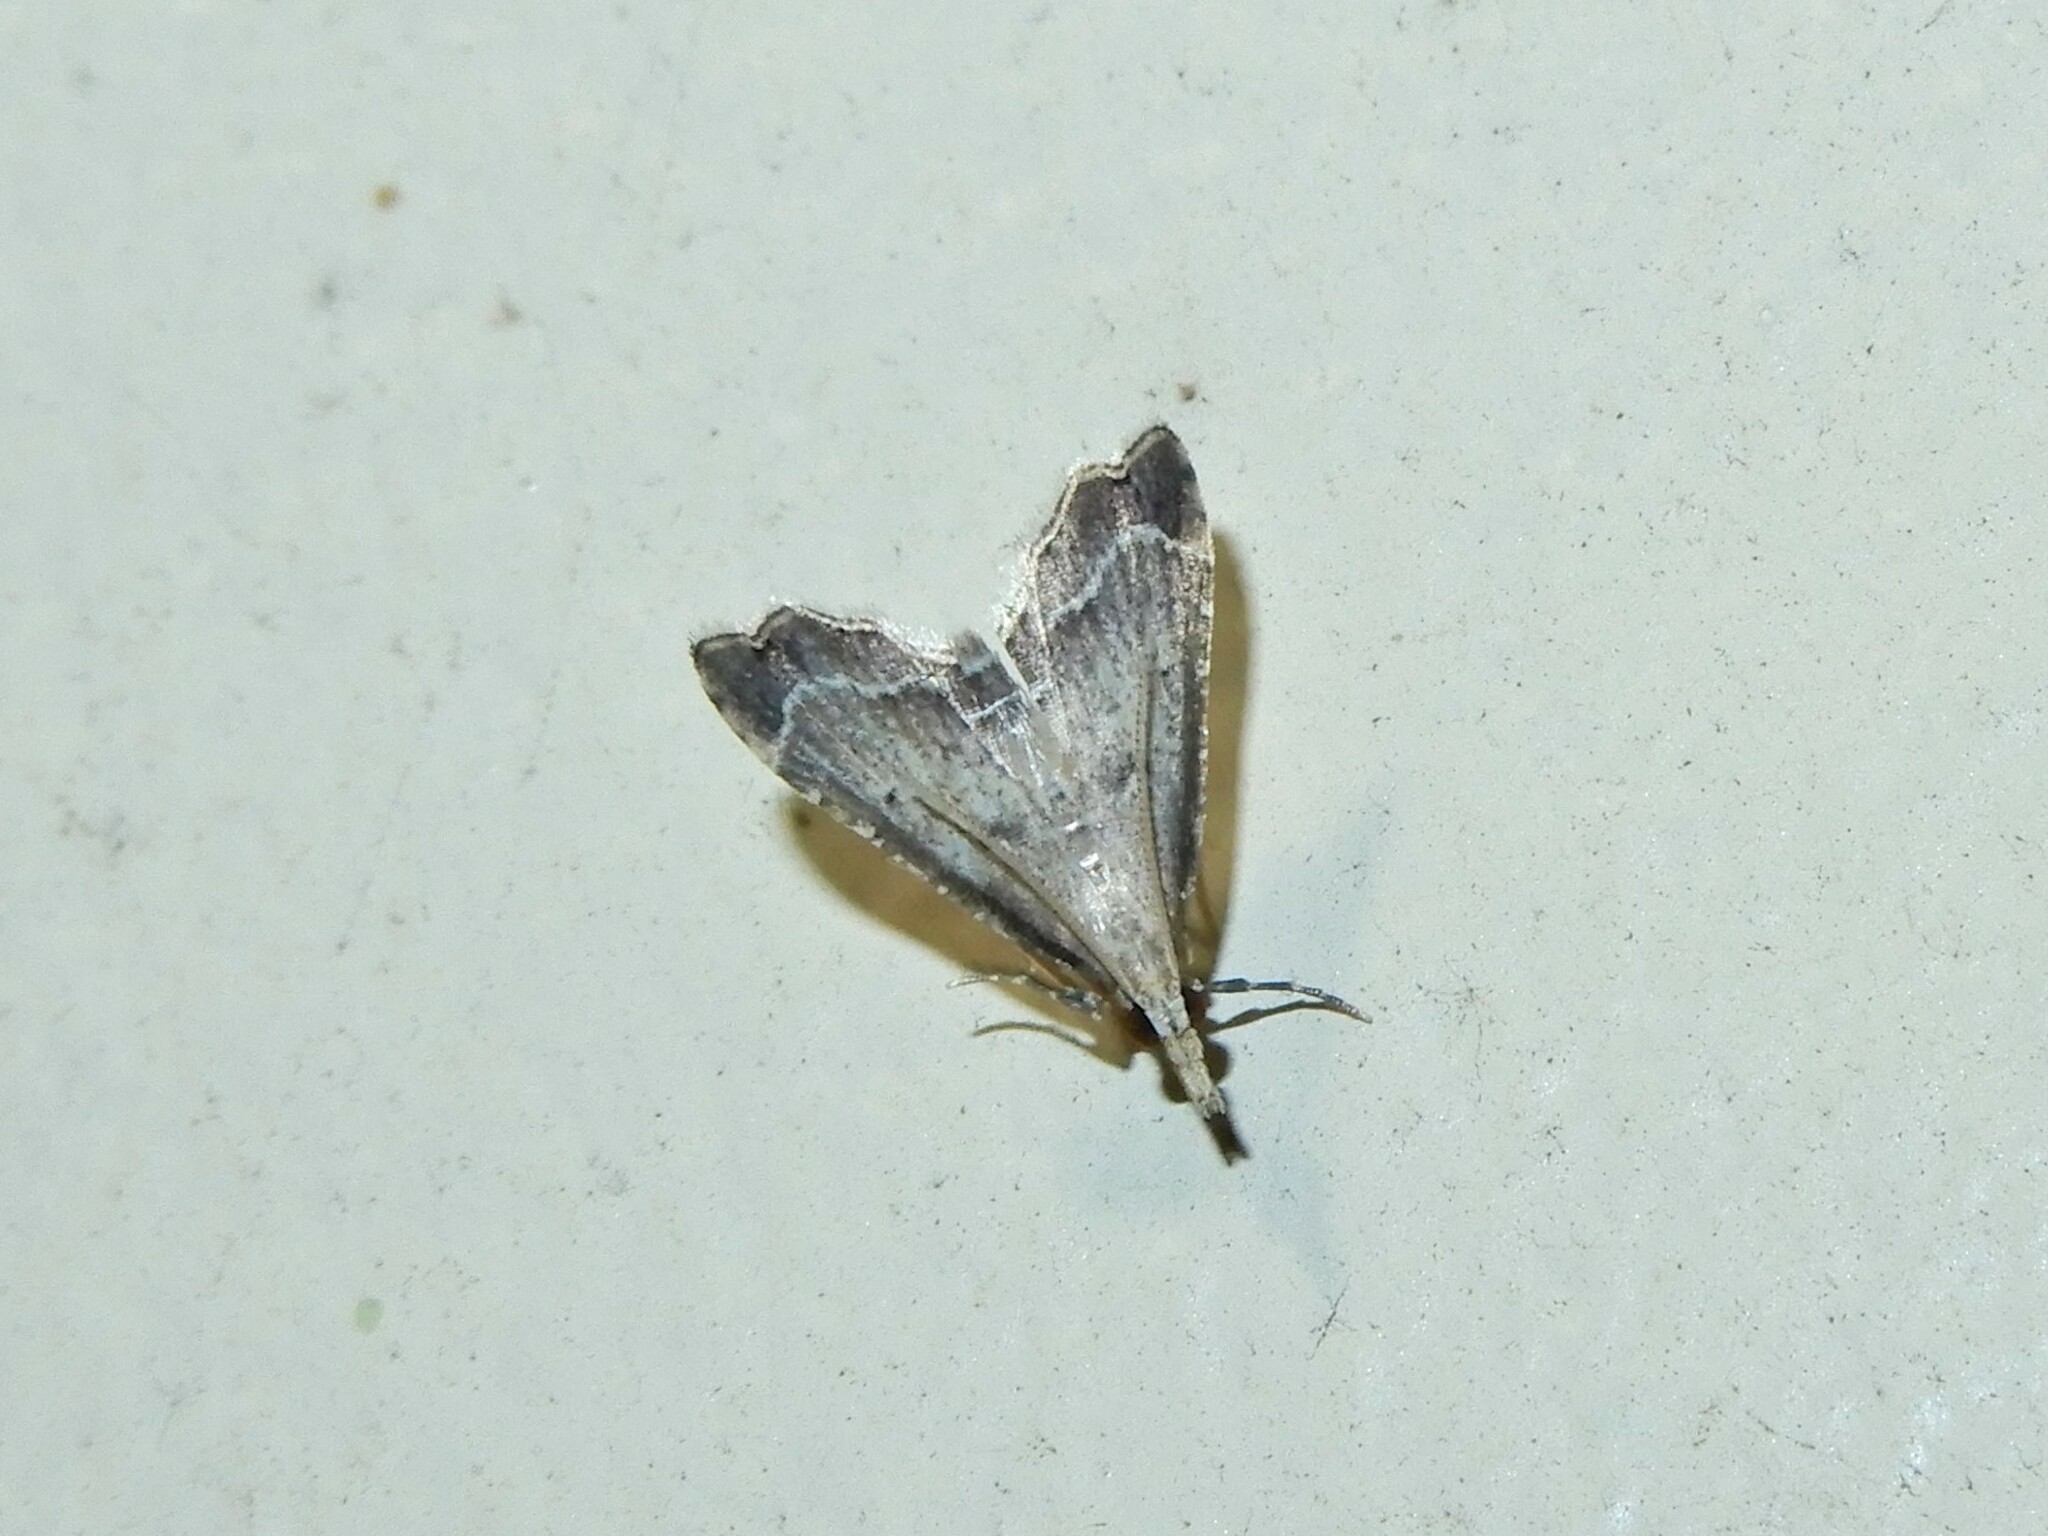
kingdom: Animalia
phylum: Arthropoda
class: Insecta
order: Lepidoptera
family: Crambidae
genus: Diplopseustis
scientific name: Diplopseustis perieresalis
